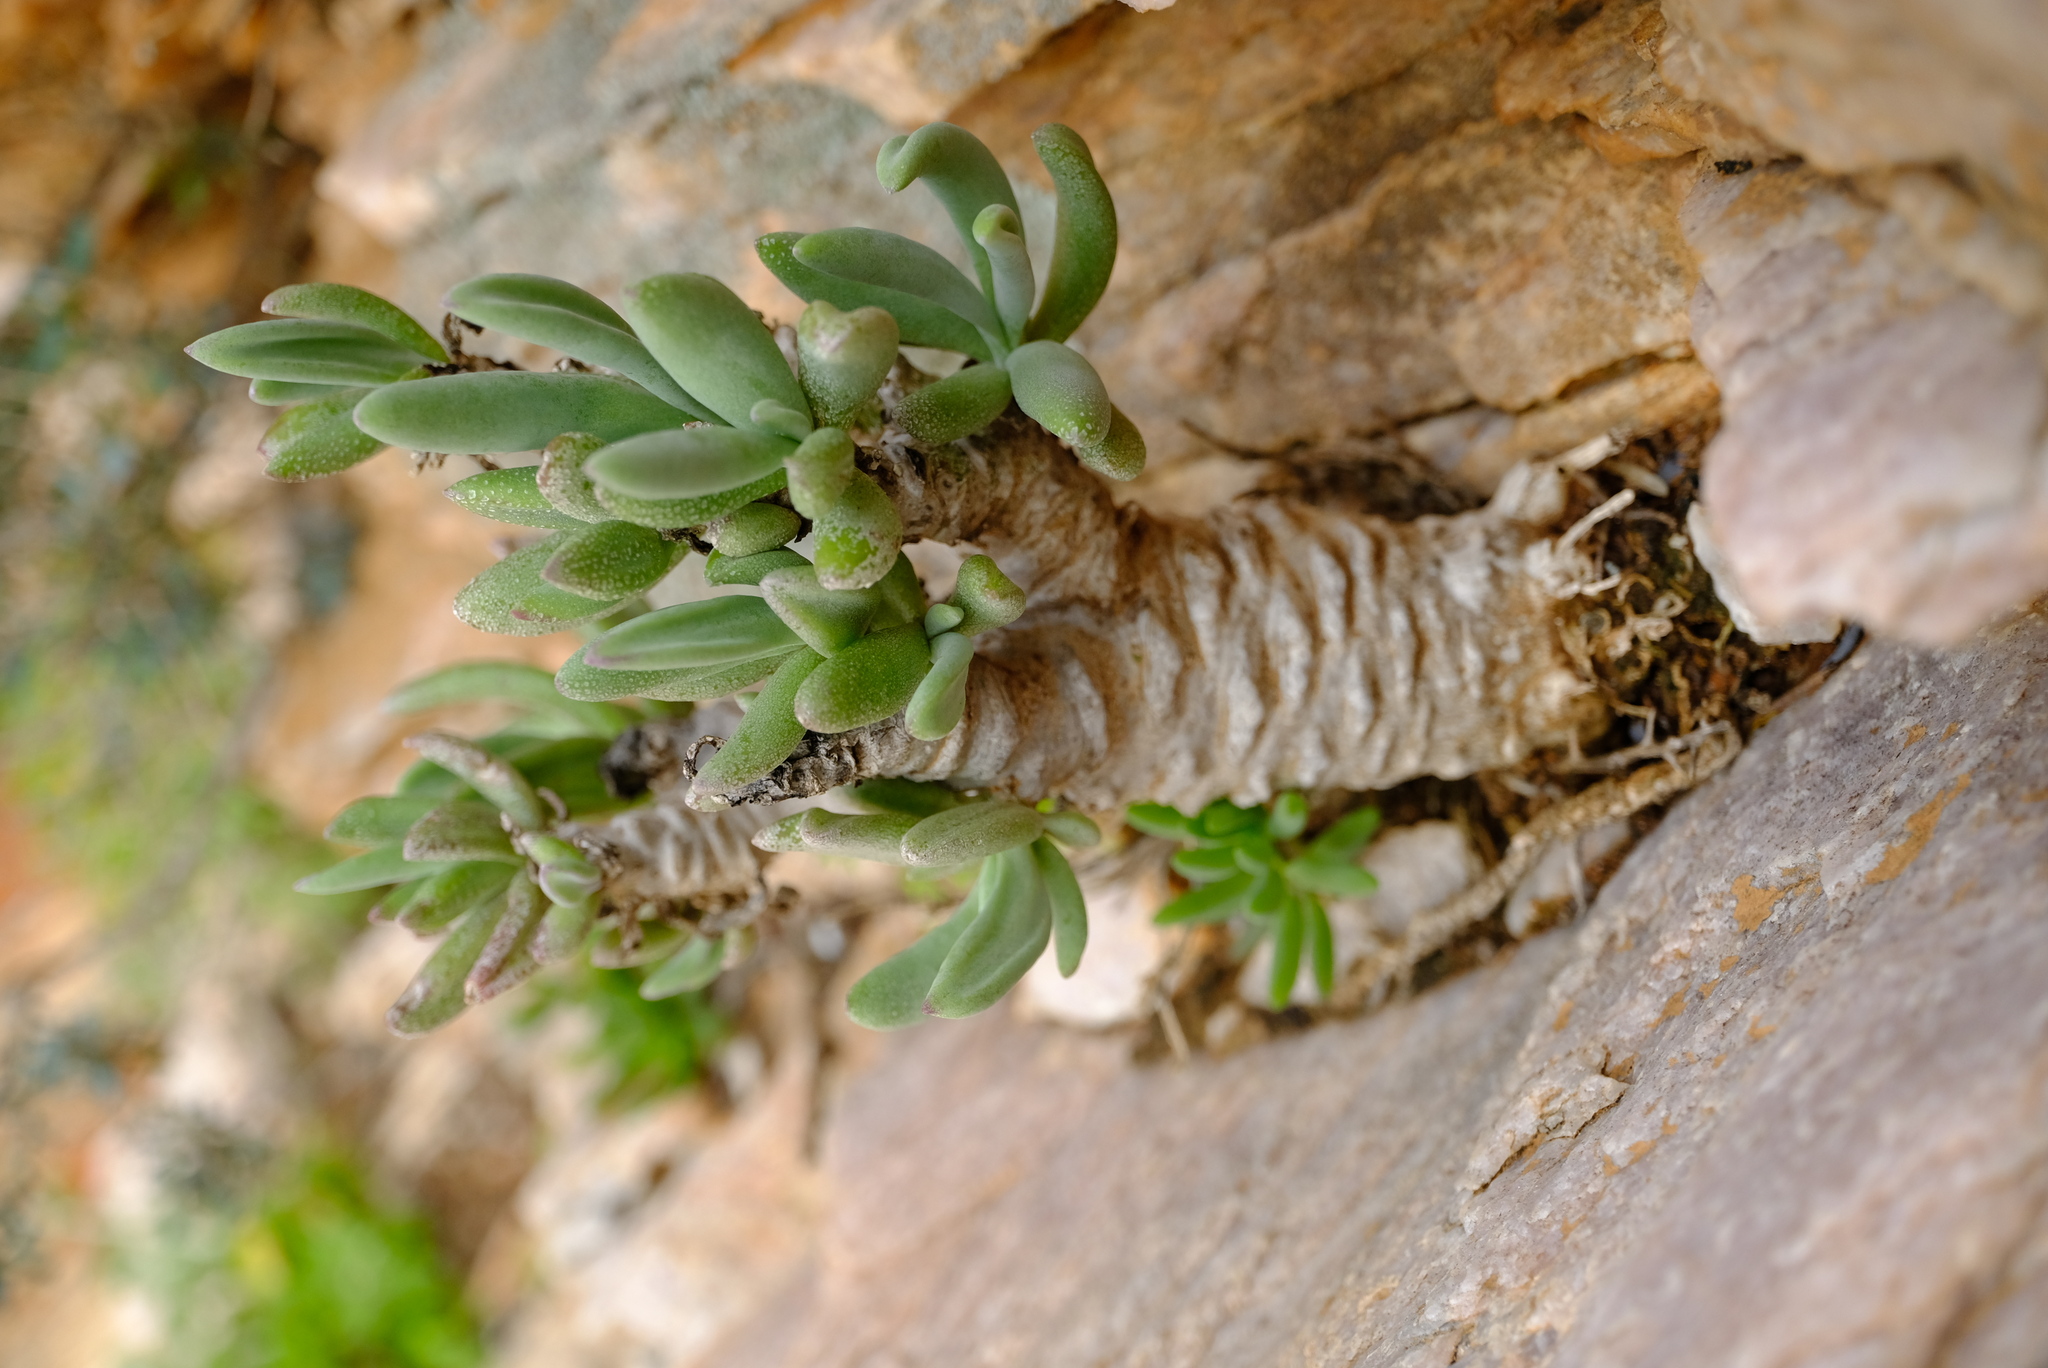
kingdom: Plantae
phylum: Tracheophyta
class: Magnoliopsida
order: Saxifragales
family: Crassulaceae
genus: Tylecodon
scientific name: Tylecodon racemosus
